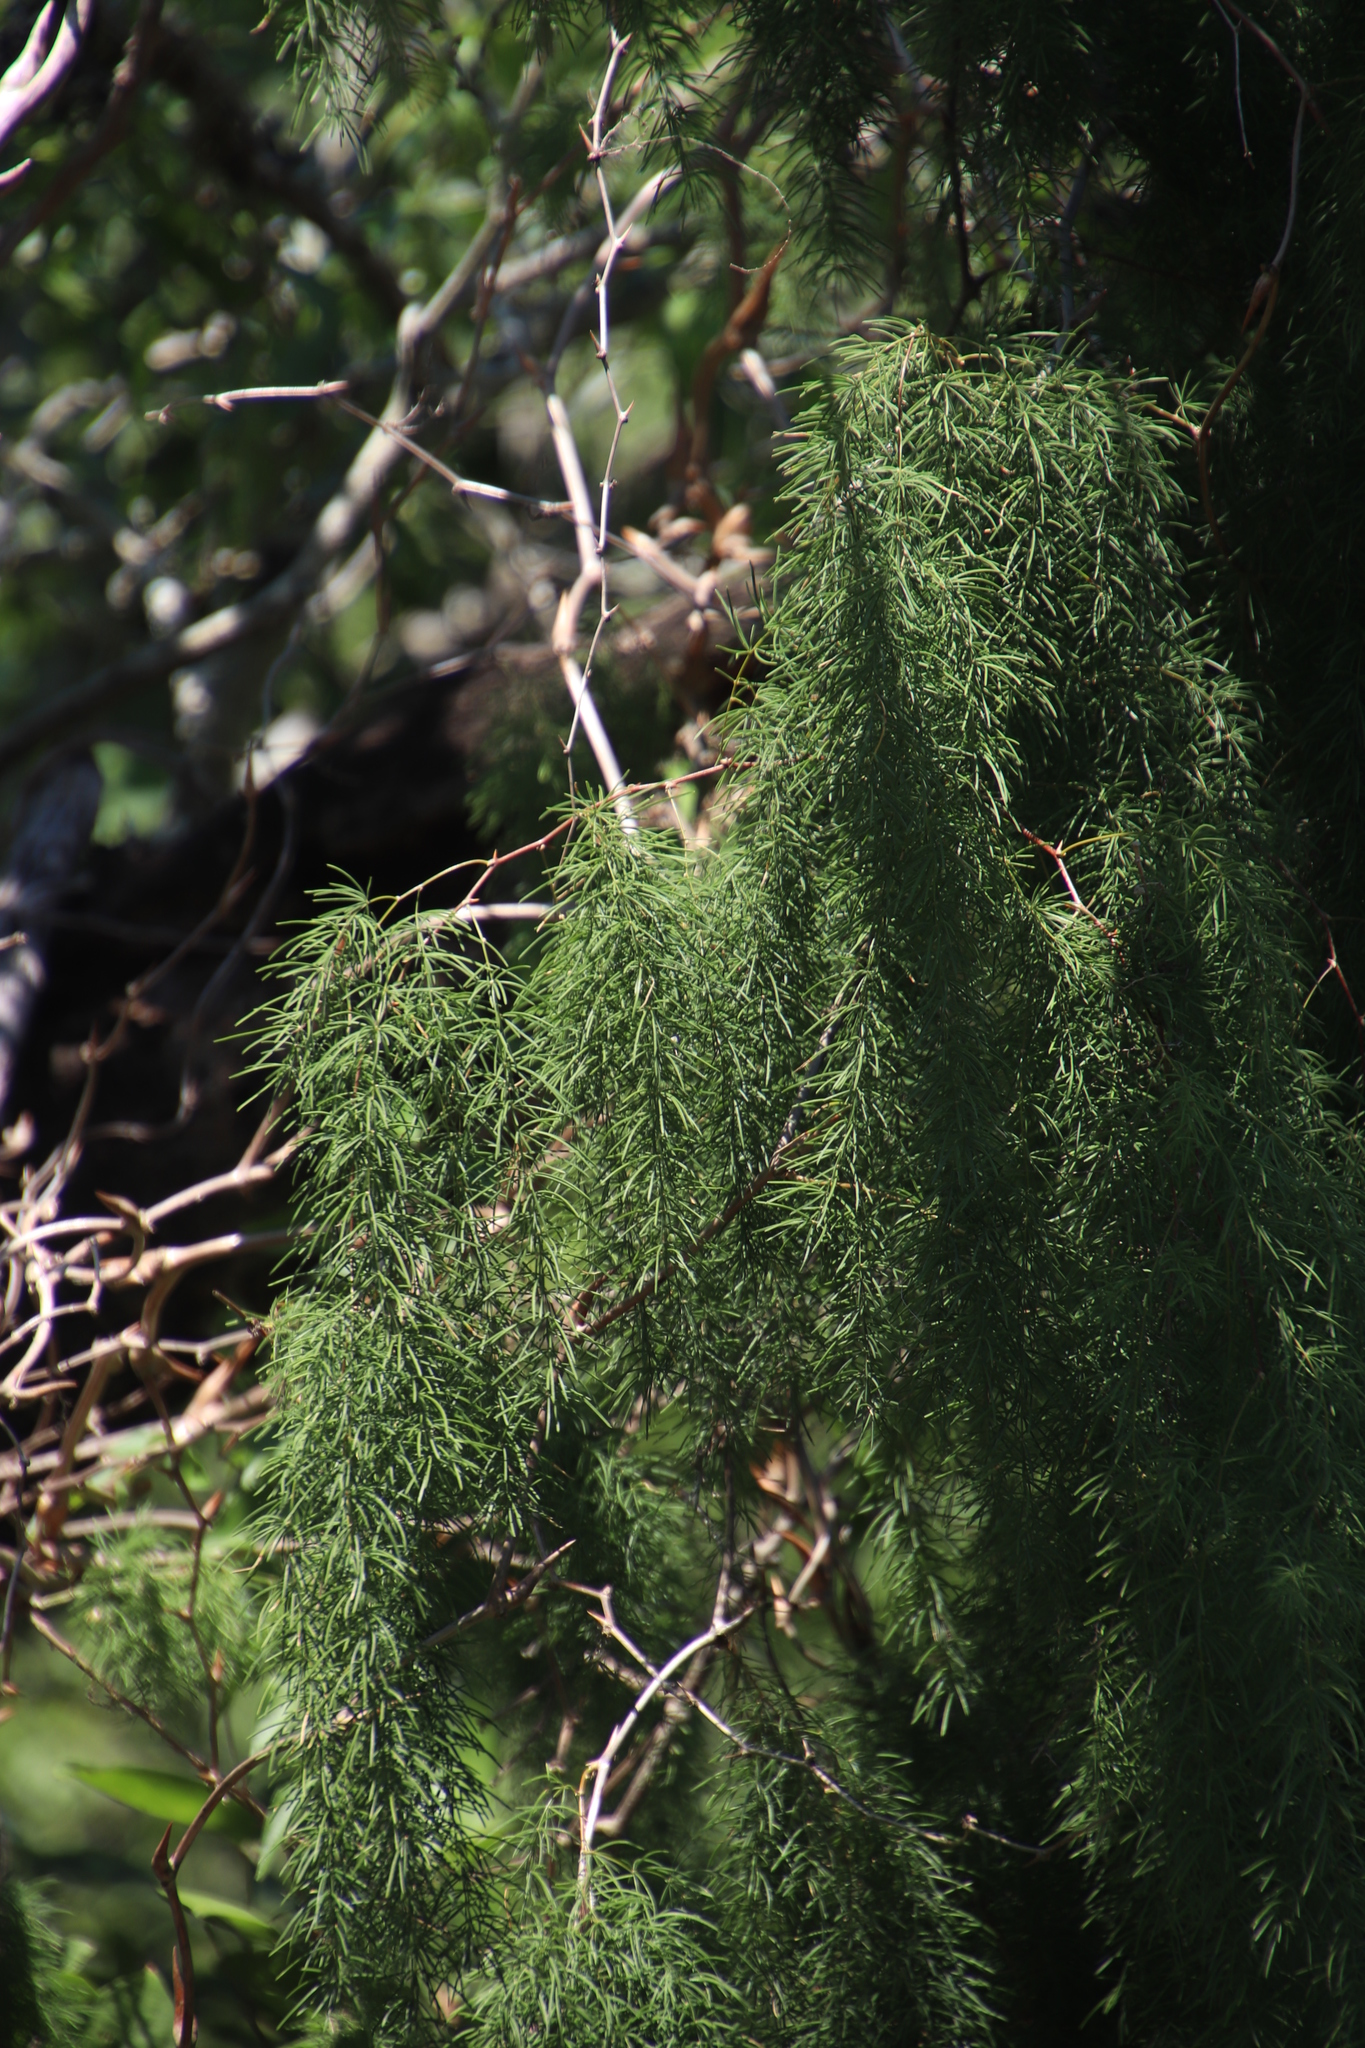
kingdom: Plantae
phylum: Tracheophyta
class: Liliopsida
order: Asparagales
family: Asparagaceae
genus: Asparagus
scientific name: Asparagus buchananii
